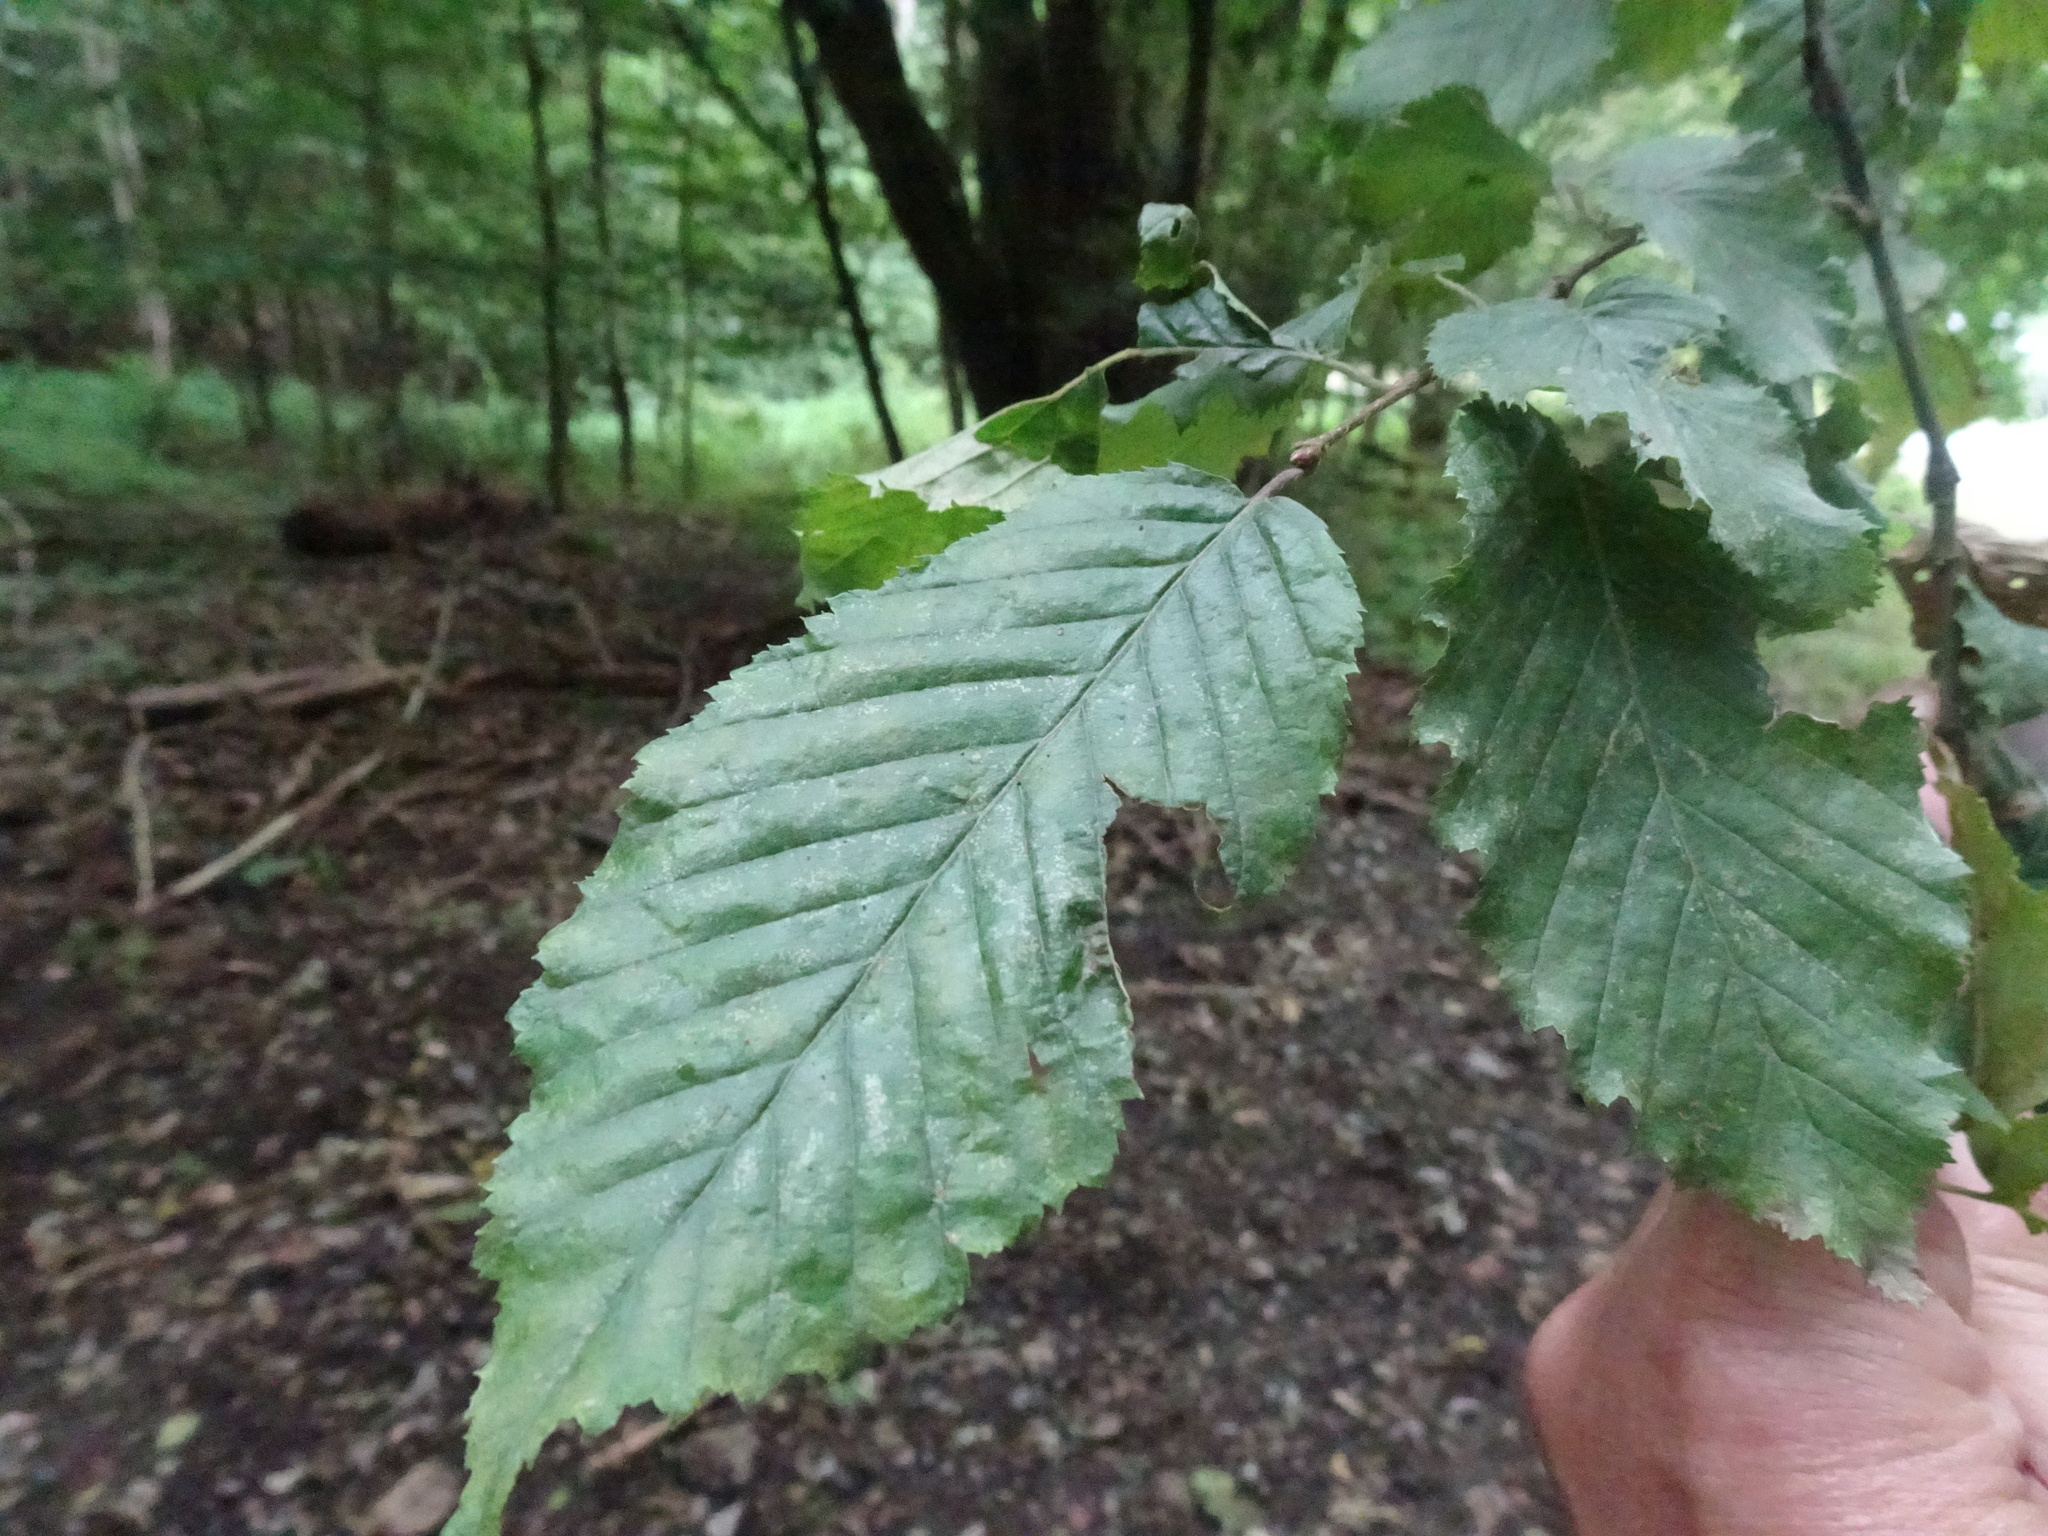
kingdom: Plantae
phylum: Tracheophyta
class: Magnoliopsida
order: Fagales
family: Betulaceae
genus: Carpinus
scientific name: Carpinus betulus
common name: Hornbeam
